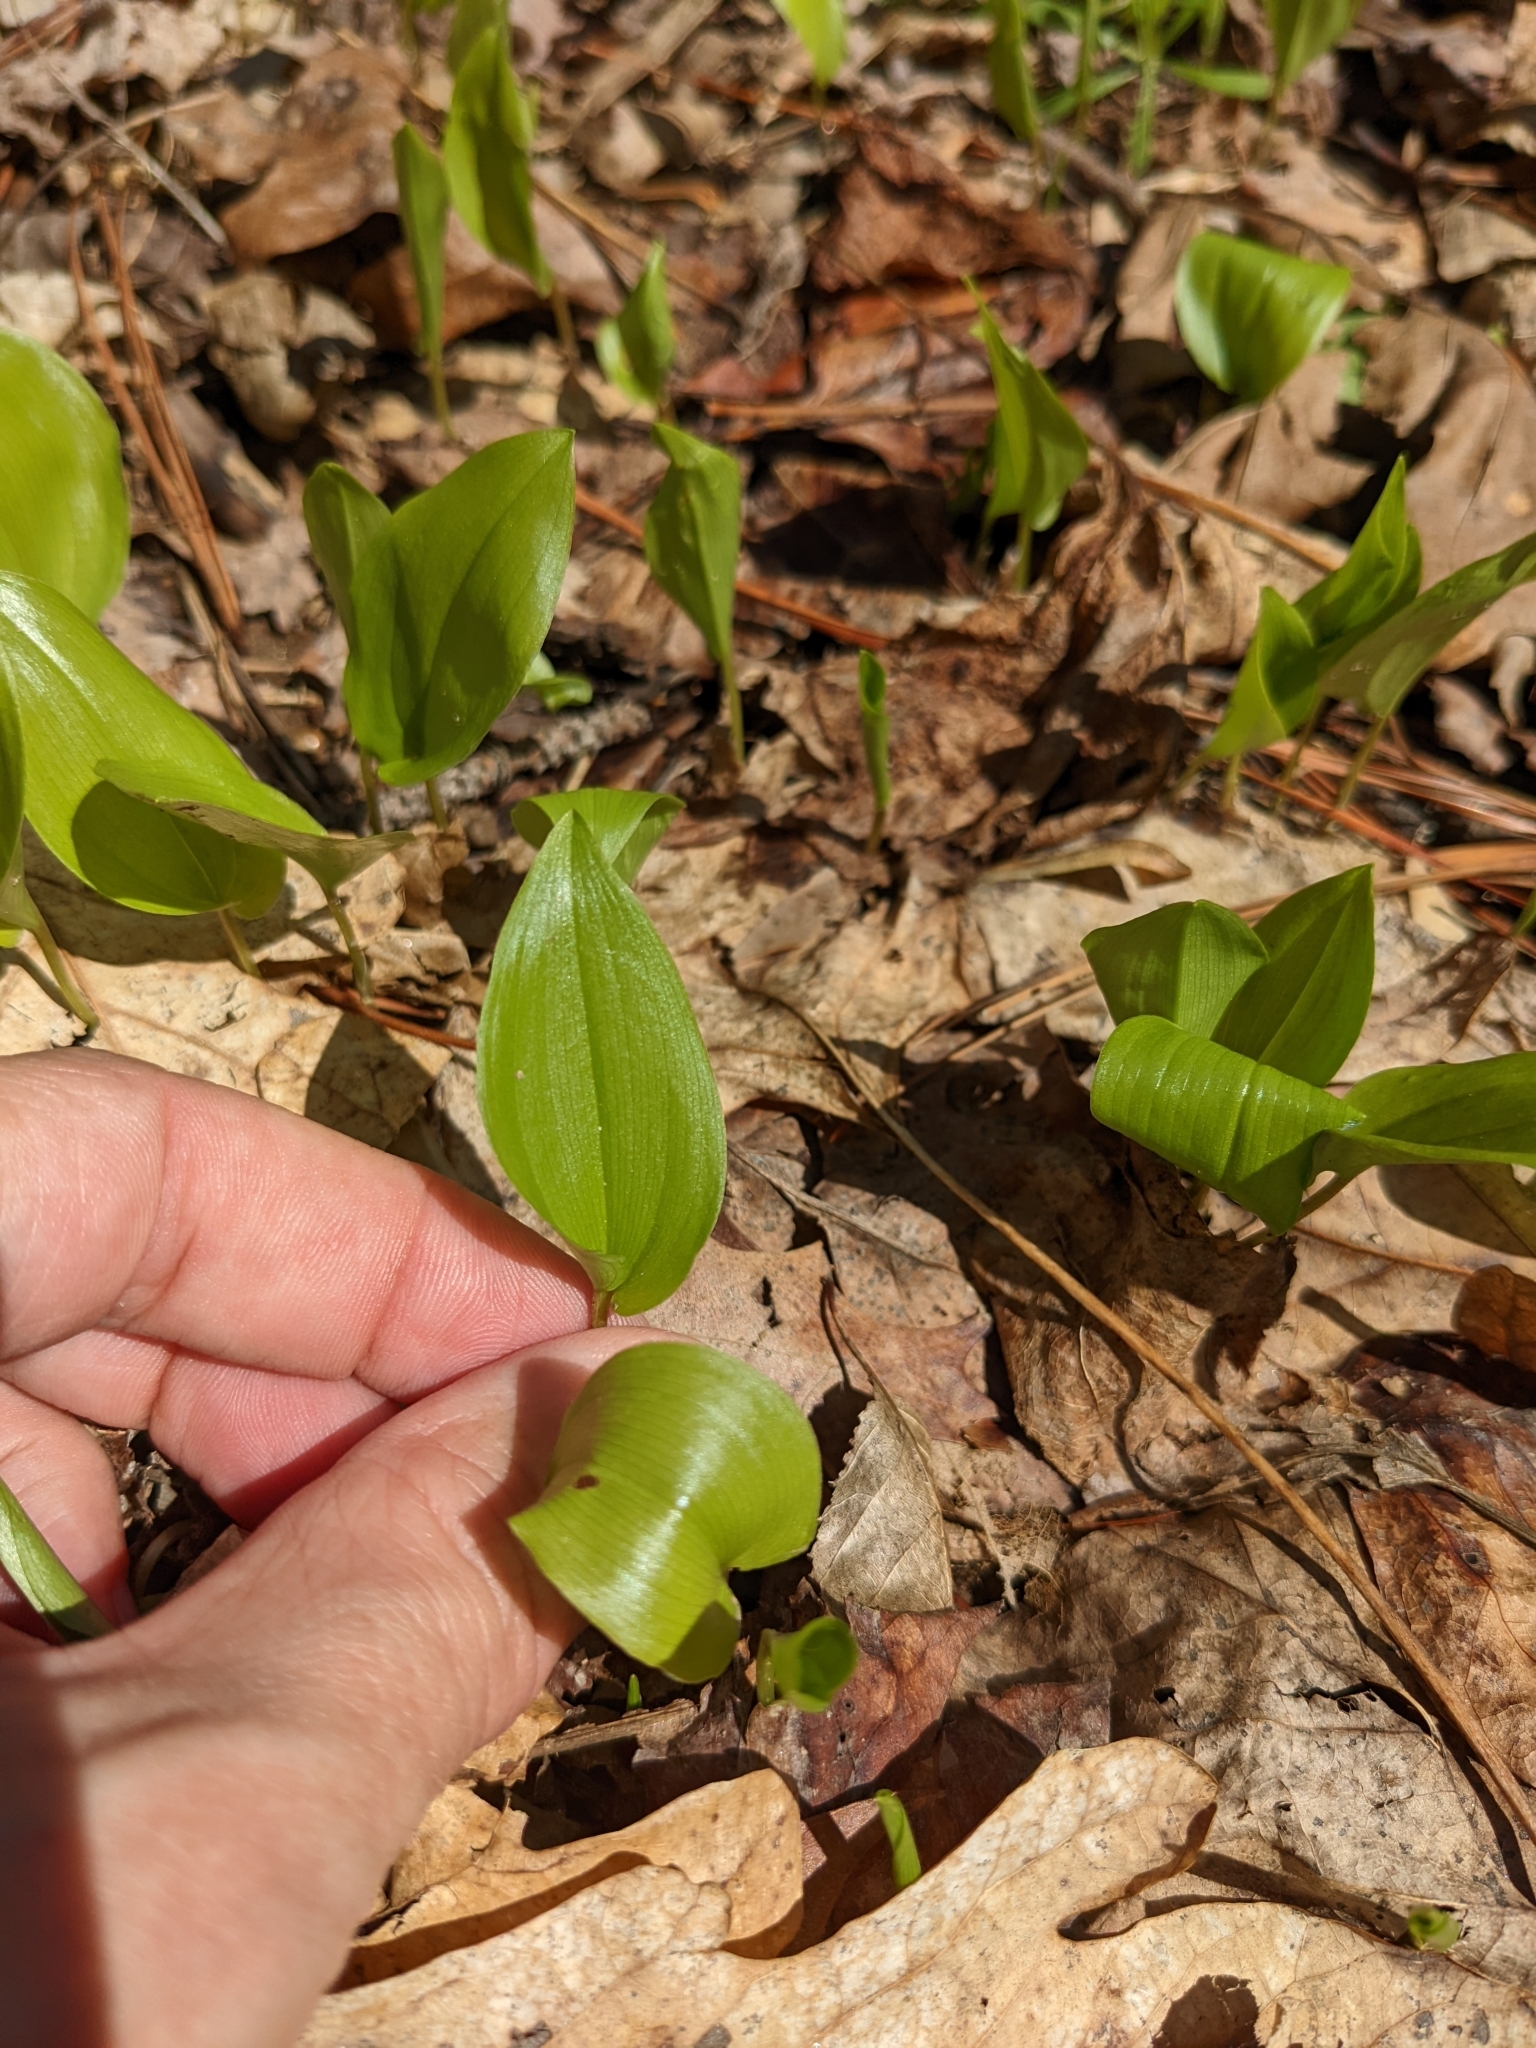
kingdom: Plantae
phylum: Tracheophyta
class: Liliopsida
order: Asparagales
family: Asparagaceae
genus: Maianthemum
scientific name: Maianthemum canadense
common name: False lily-of-the-valley
